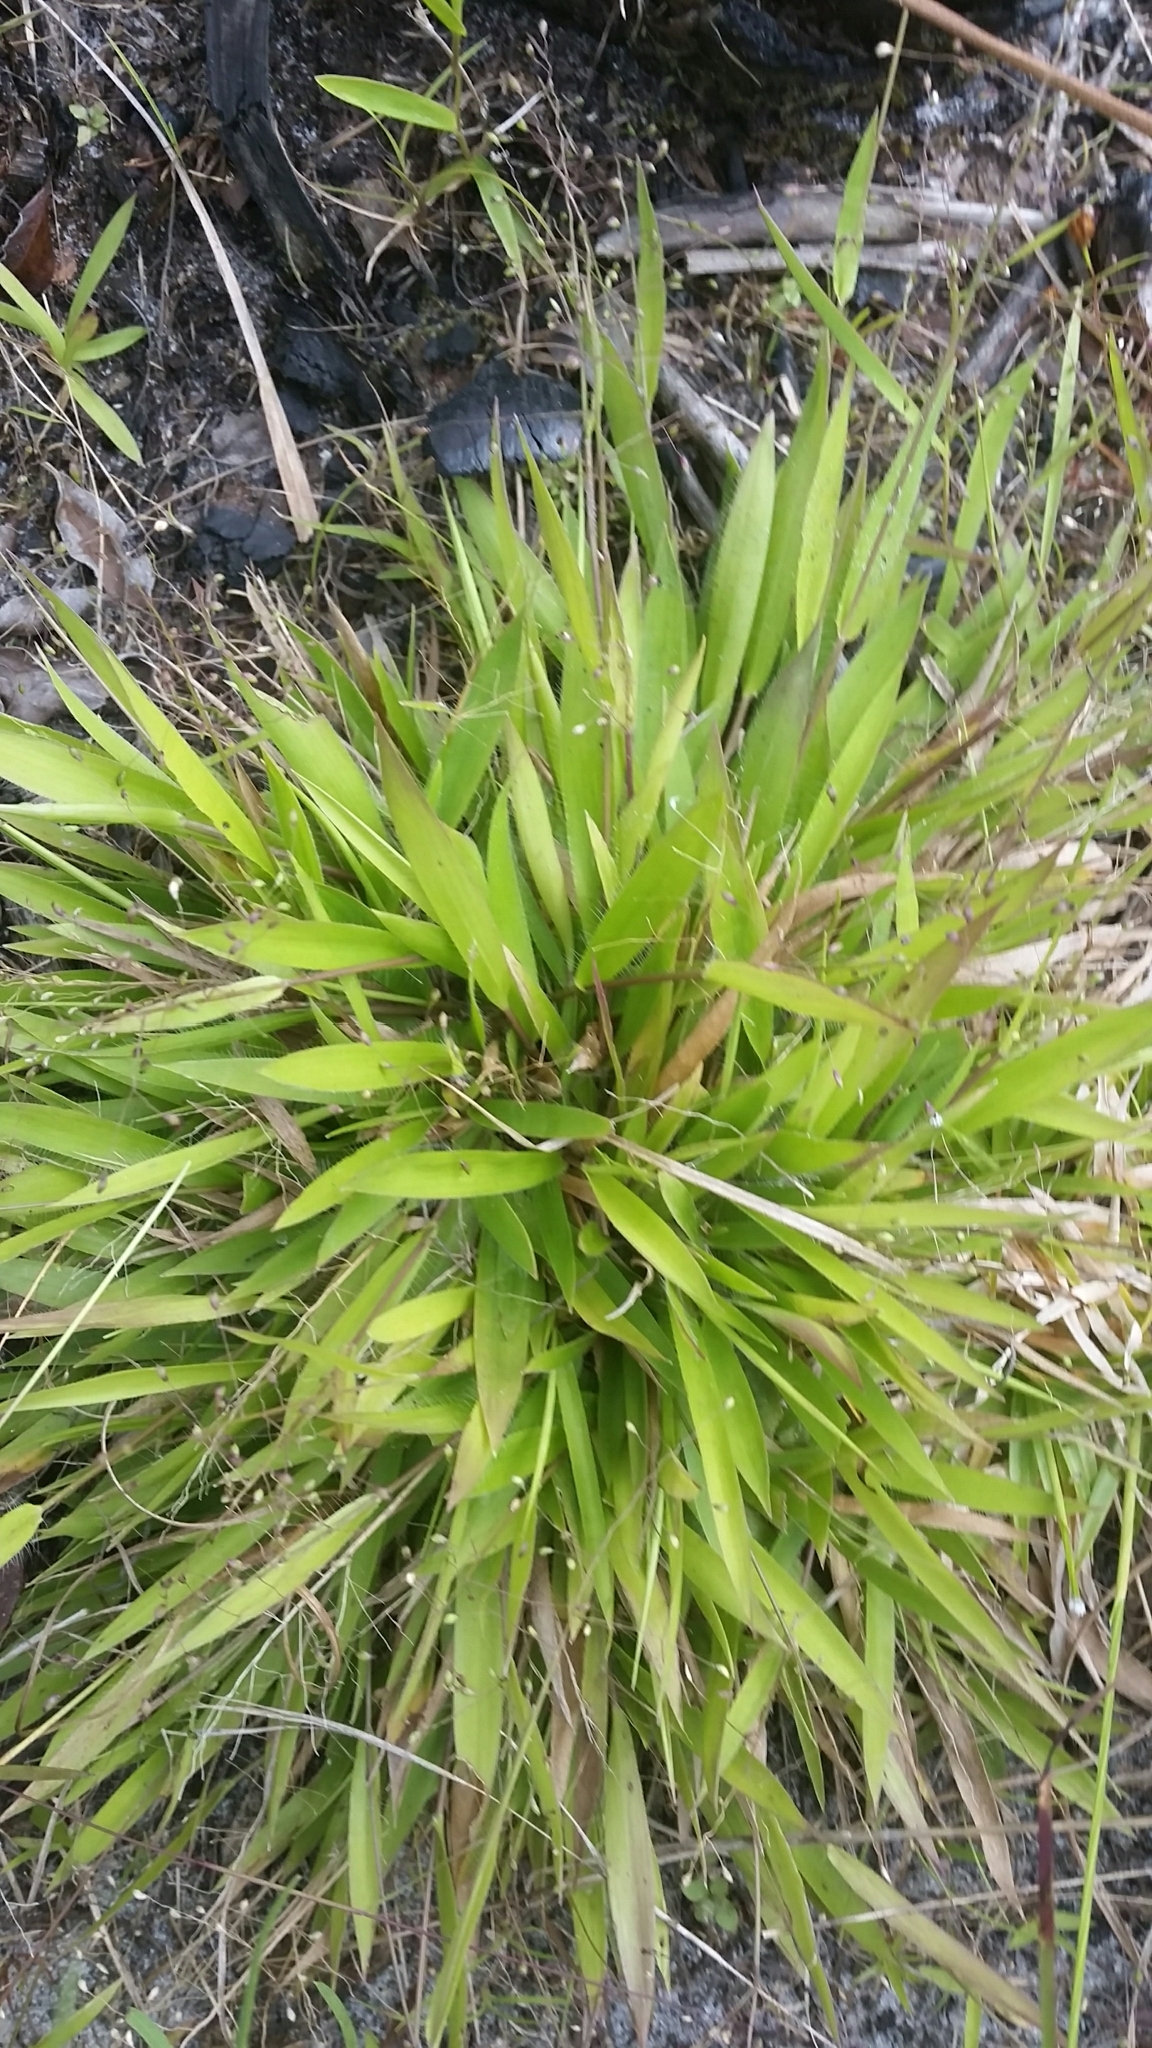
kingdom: Plantae
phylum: Tracheophyta
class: Liliopsida
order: Poales
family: Poaceae
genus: Dichanthelium
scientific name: Dichanthelium strigosum
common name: Cushion-tuft panic grass
